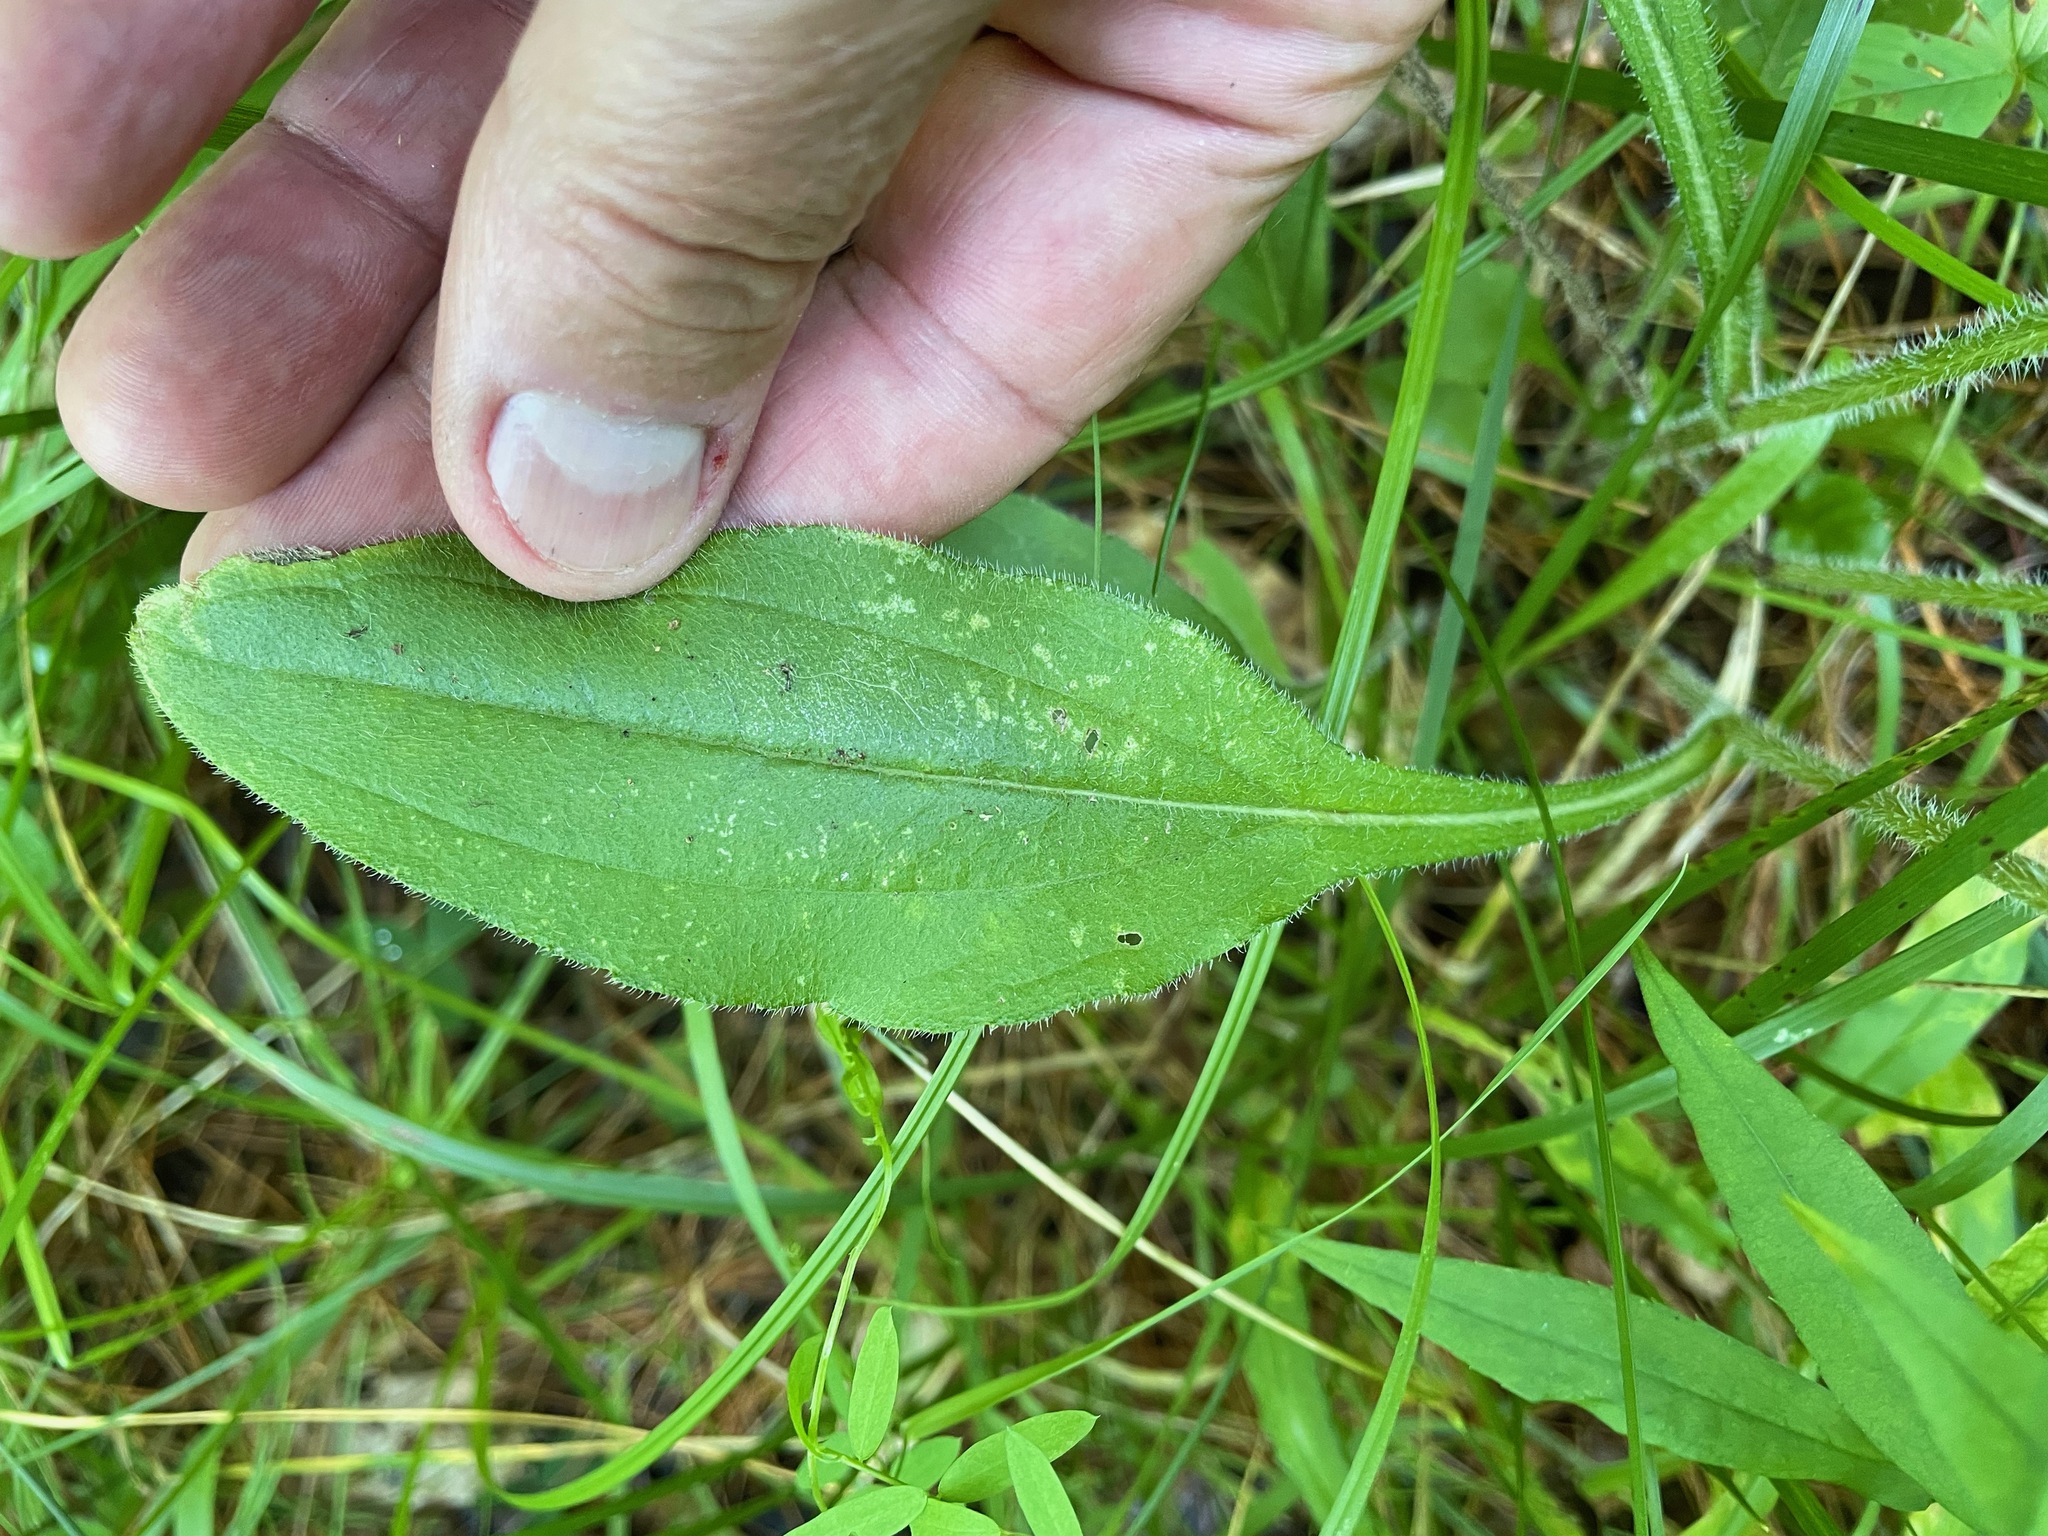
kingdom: Plantae
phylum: Tracheophyta
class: Magnoliopsida
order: Asterales
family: Asteraceae
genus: Rudbeckia
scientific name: Rudbeckia hirta
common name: Black-eyed-susan
